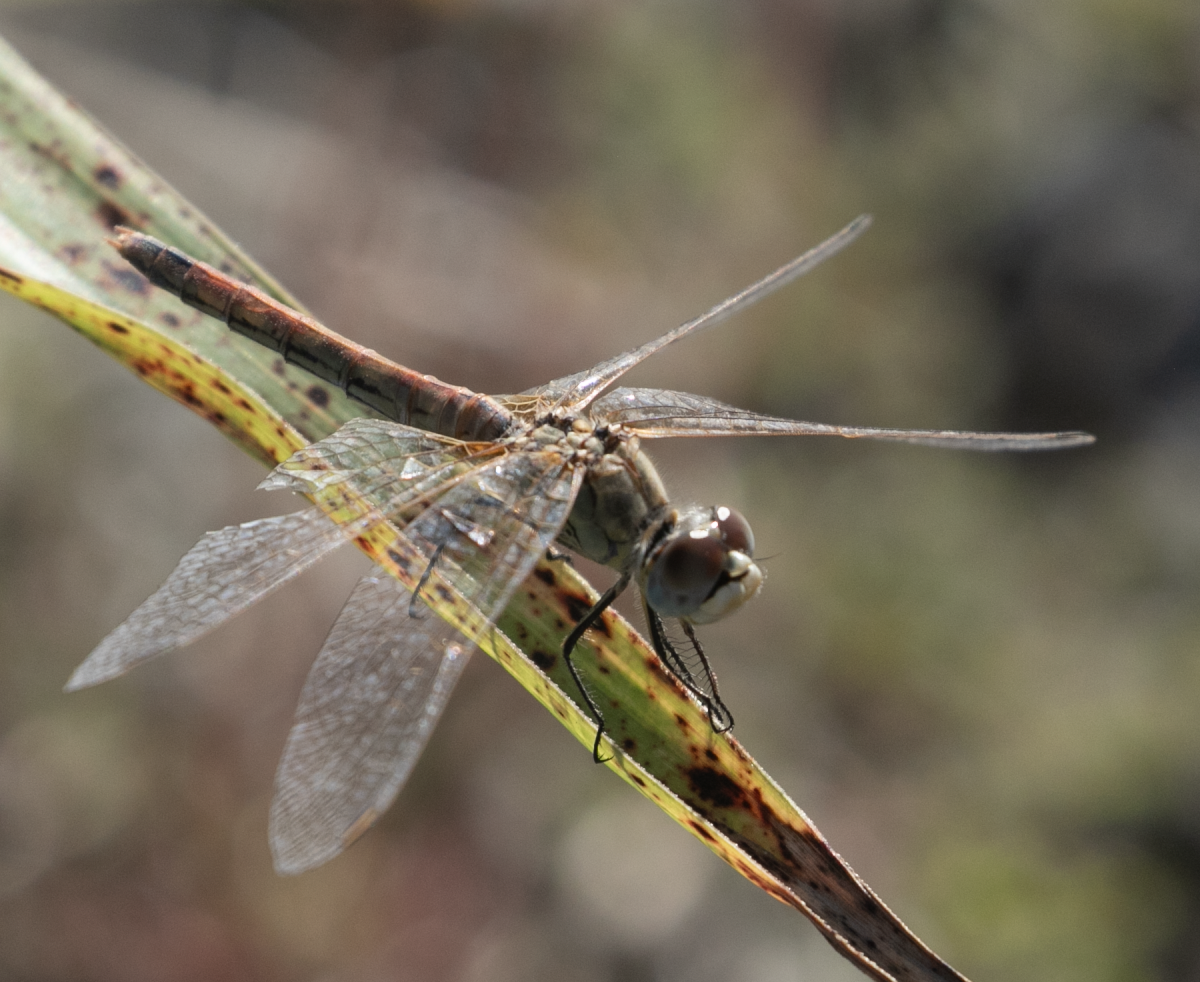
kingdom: Animalia
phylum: Arthropoda
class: Insecta
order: Odonata
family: Libellulidae
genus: Sympetrum
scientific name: Sympetrum fonscolombii
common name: Red-veined darter
